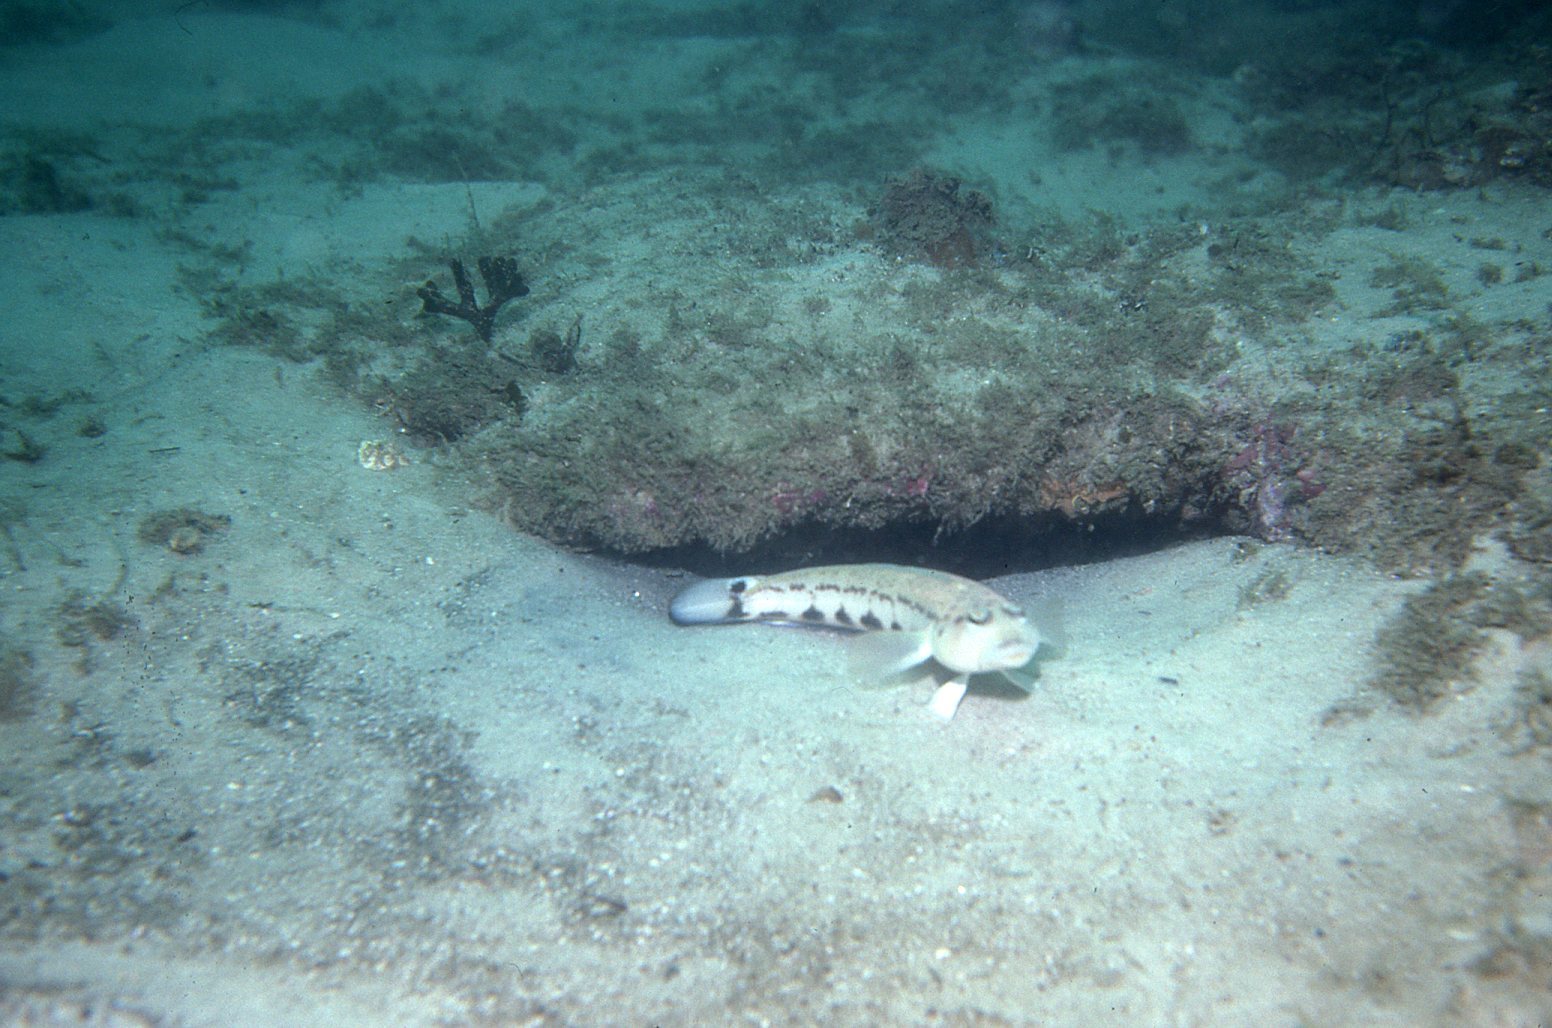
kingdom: Animalia
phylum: Chordata
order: Perciformes
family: Pinguipedidae
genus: Parapercis
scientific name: Parapercis ramsayi
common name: Ramsay's grubfish
